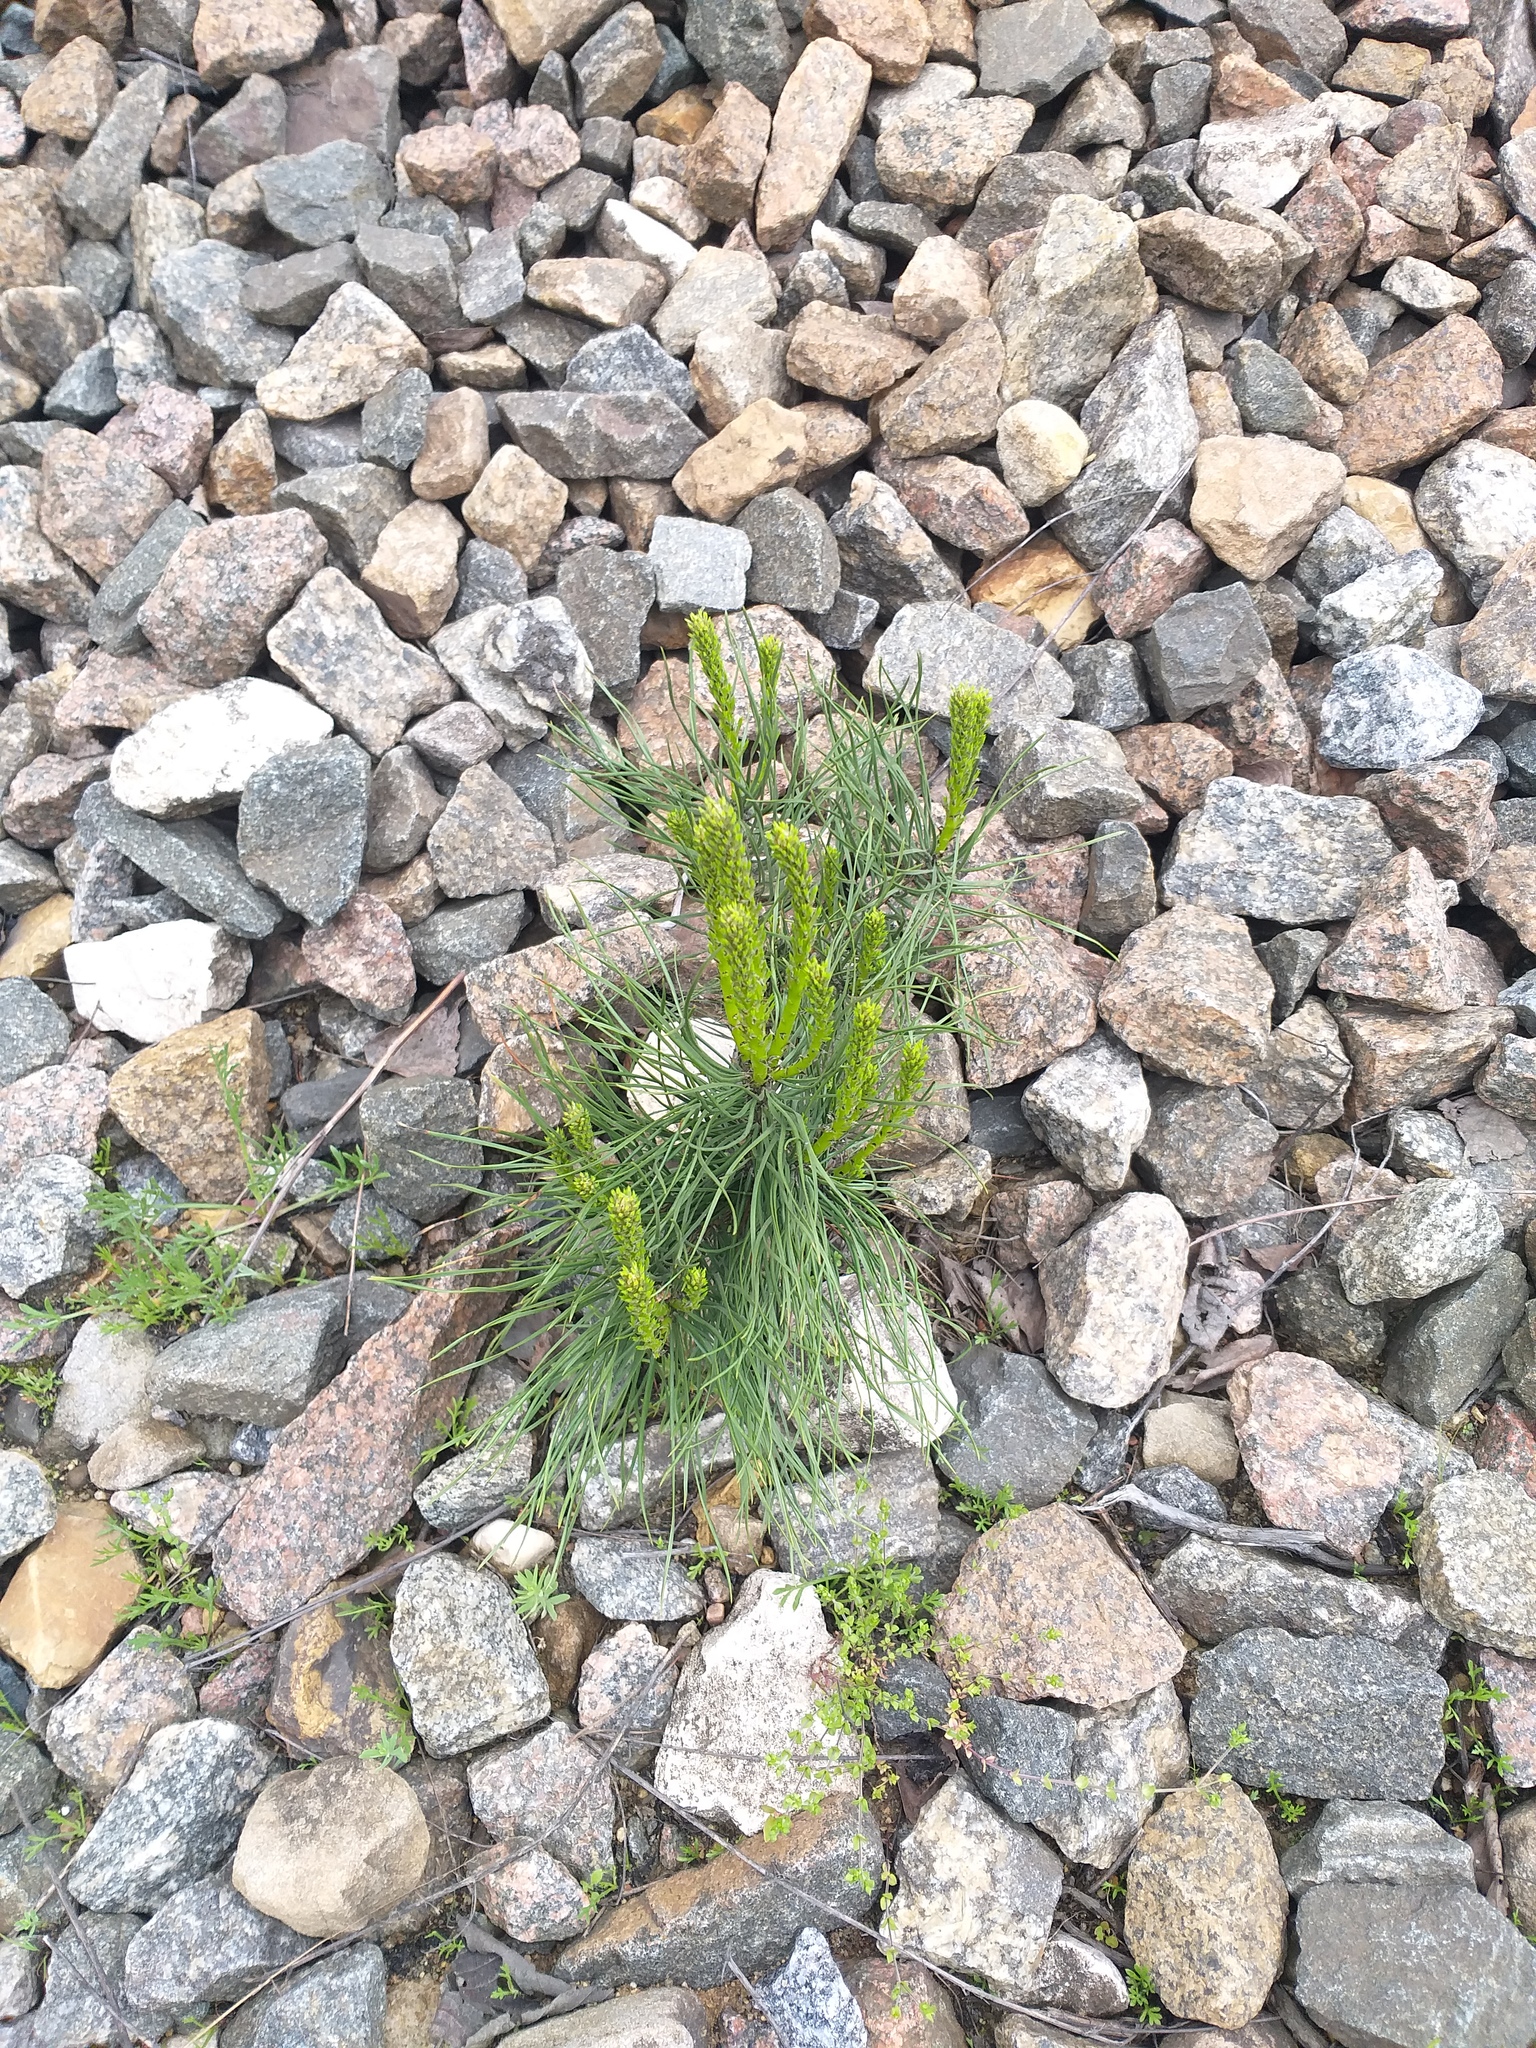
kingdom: Plantae
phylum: Tracheophyta
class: Pinopsida
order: Pinales
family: Pinaceae
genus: Pinus
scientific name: Pinus sylvestris
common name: Scots pine
